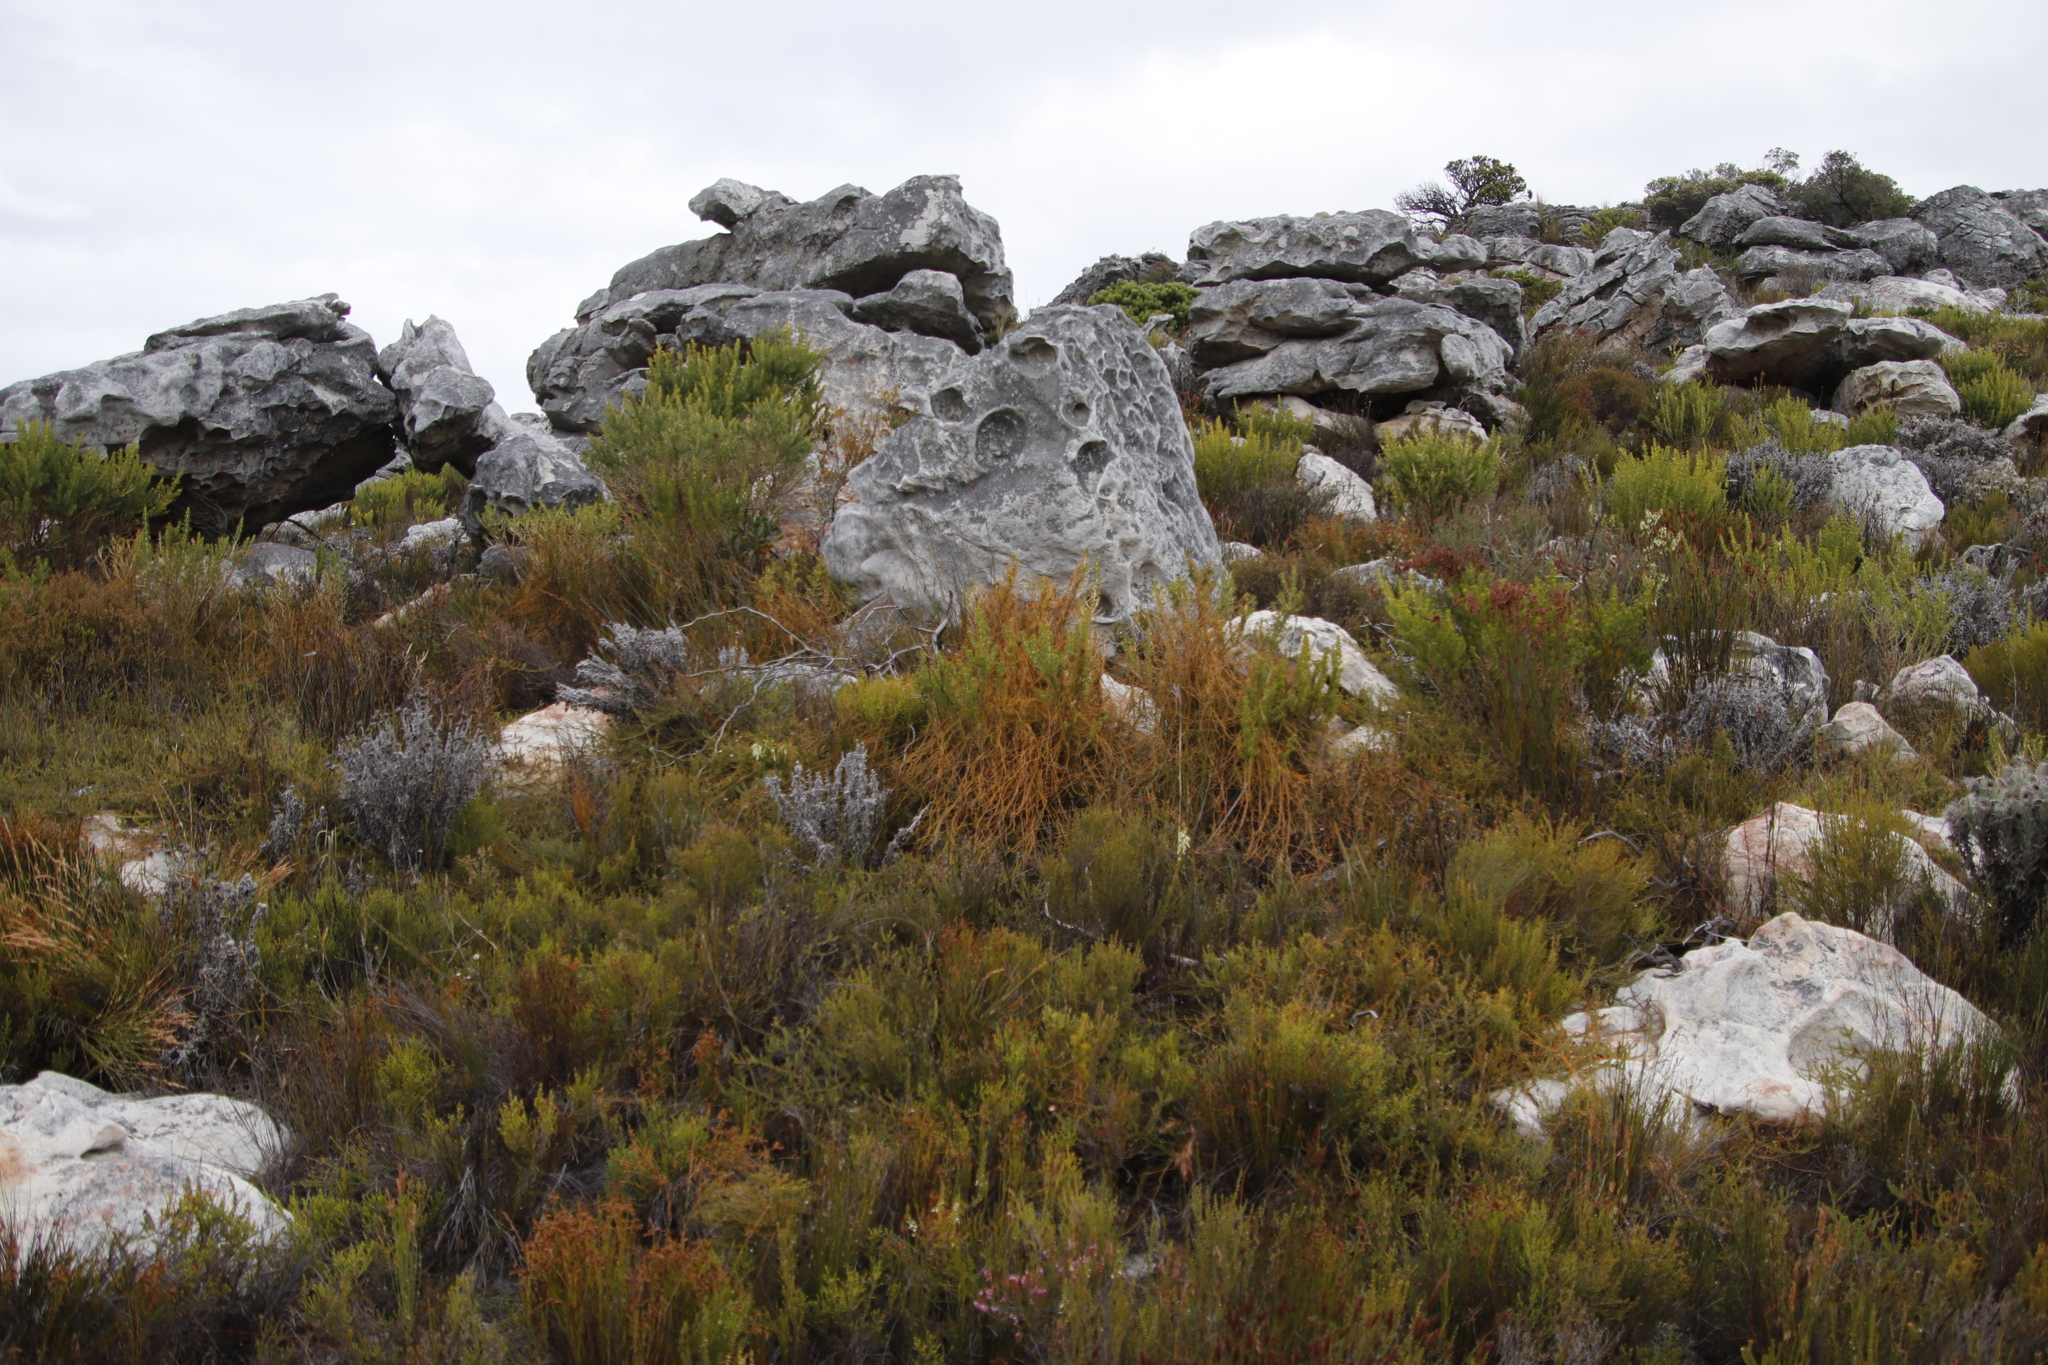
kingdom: Plantae
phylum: Tracheophyta
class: Magnoliopsida
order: Laurales
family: Lauraceae
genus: Cassytha
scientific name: Cassytha ciliolata
